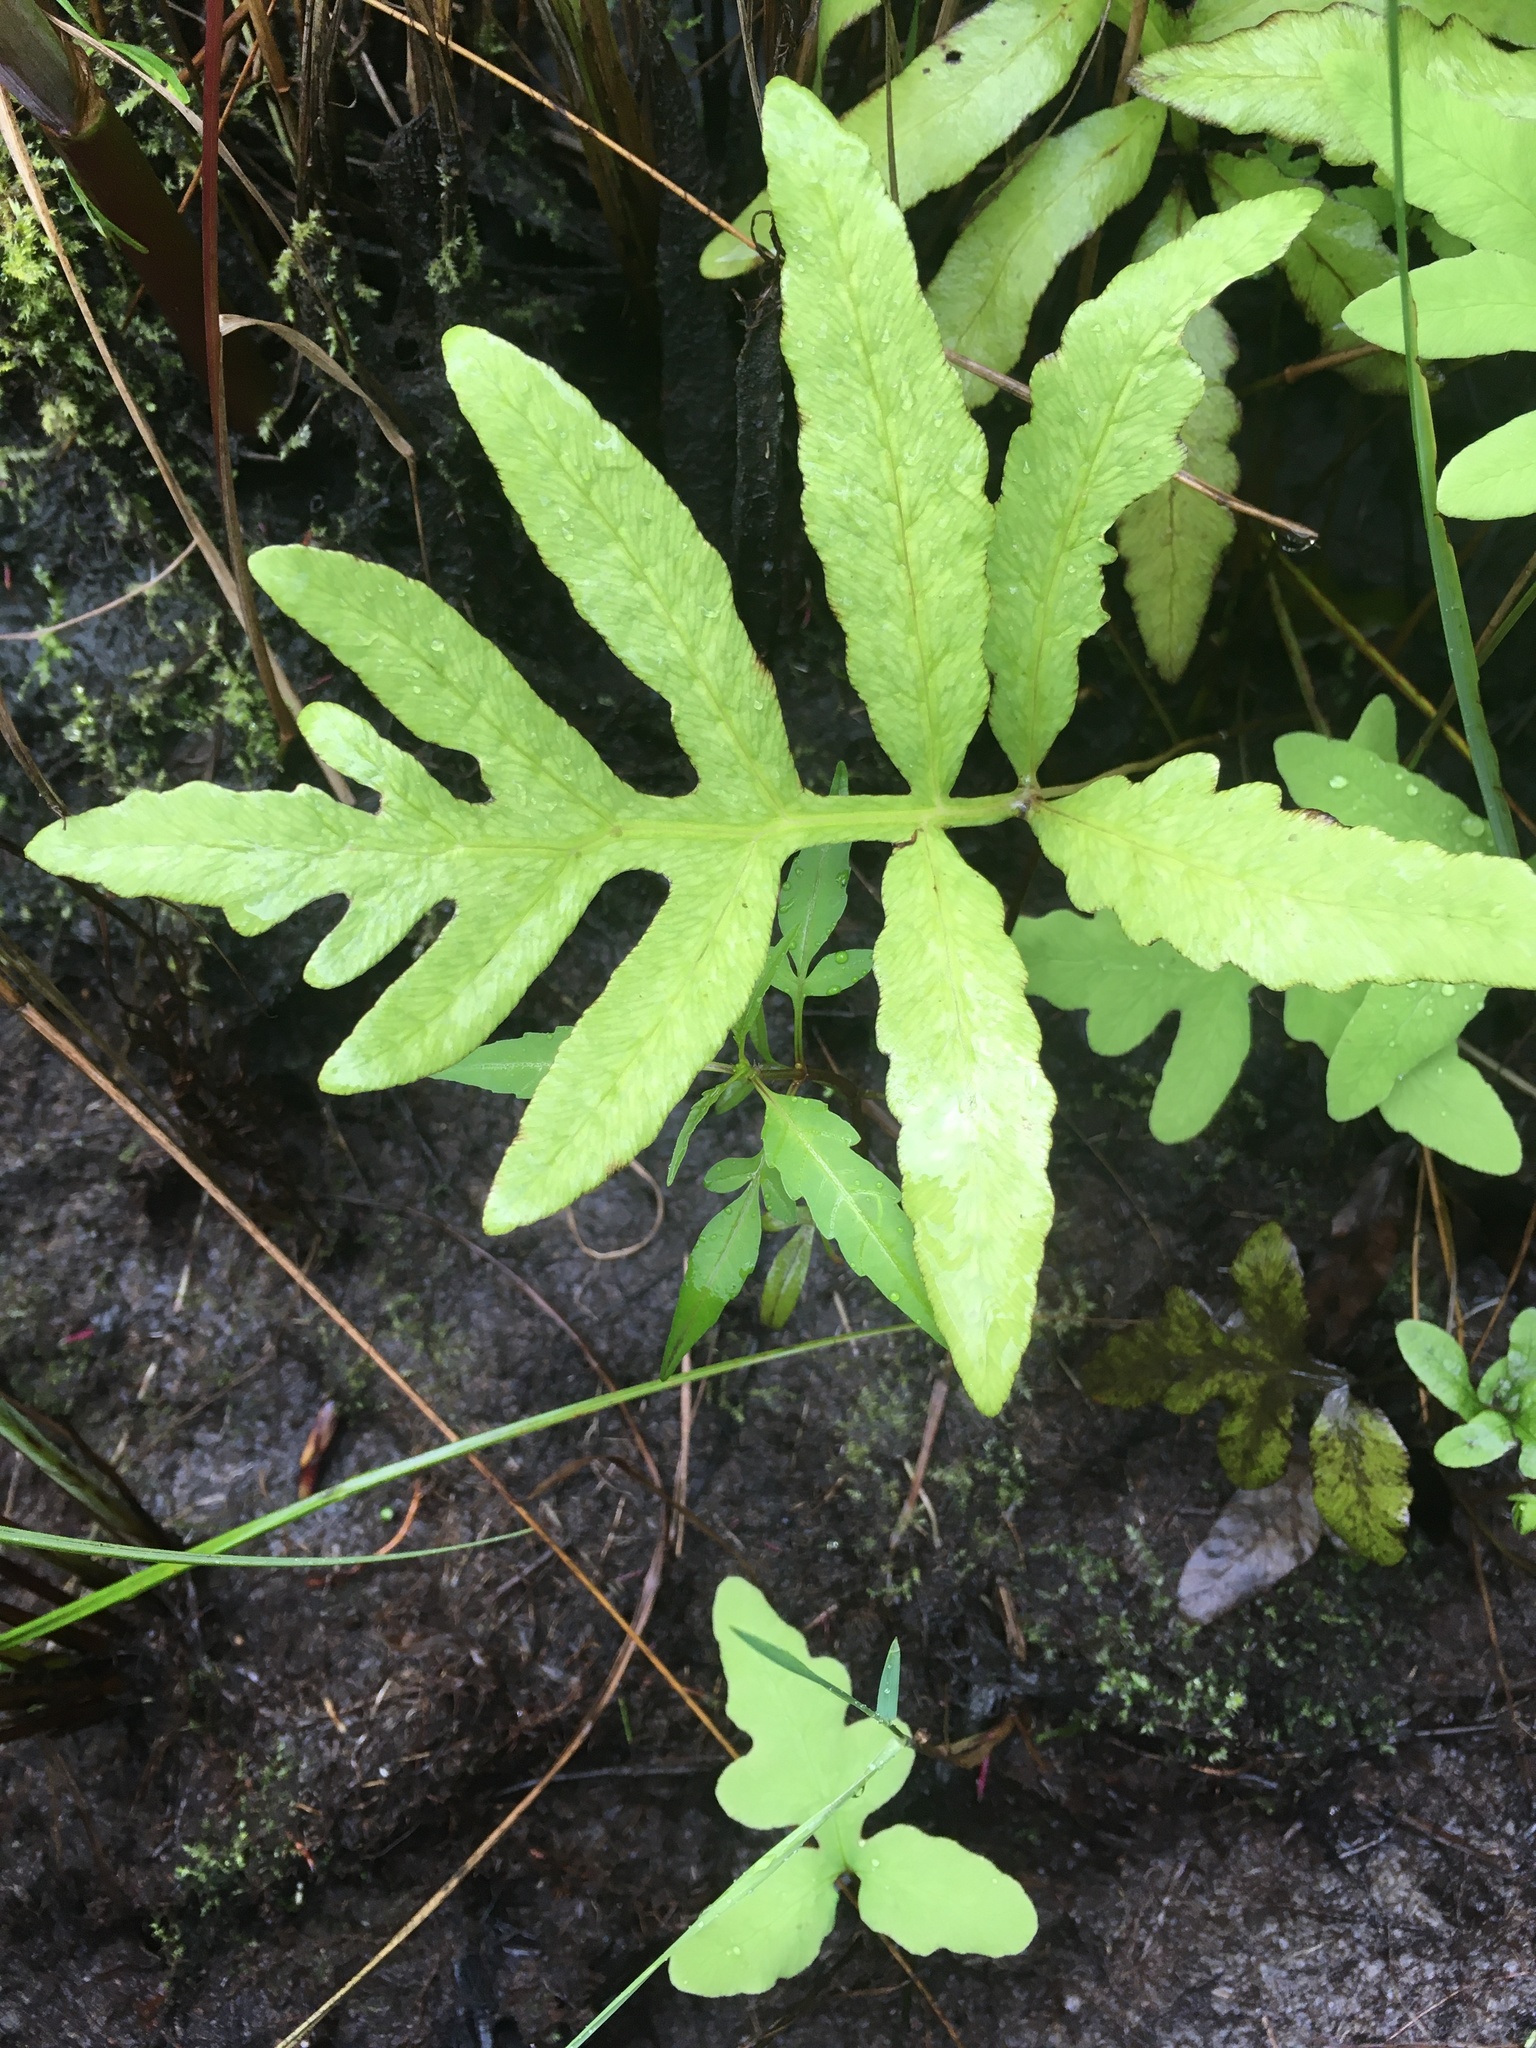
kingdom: Plantae
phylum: Tracheophyta
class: Polypodiopsida
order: Polypodiales
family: Onocleaceae
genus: Onoclea
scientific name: Onoclea sensibilis
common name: Sensitive fern
